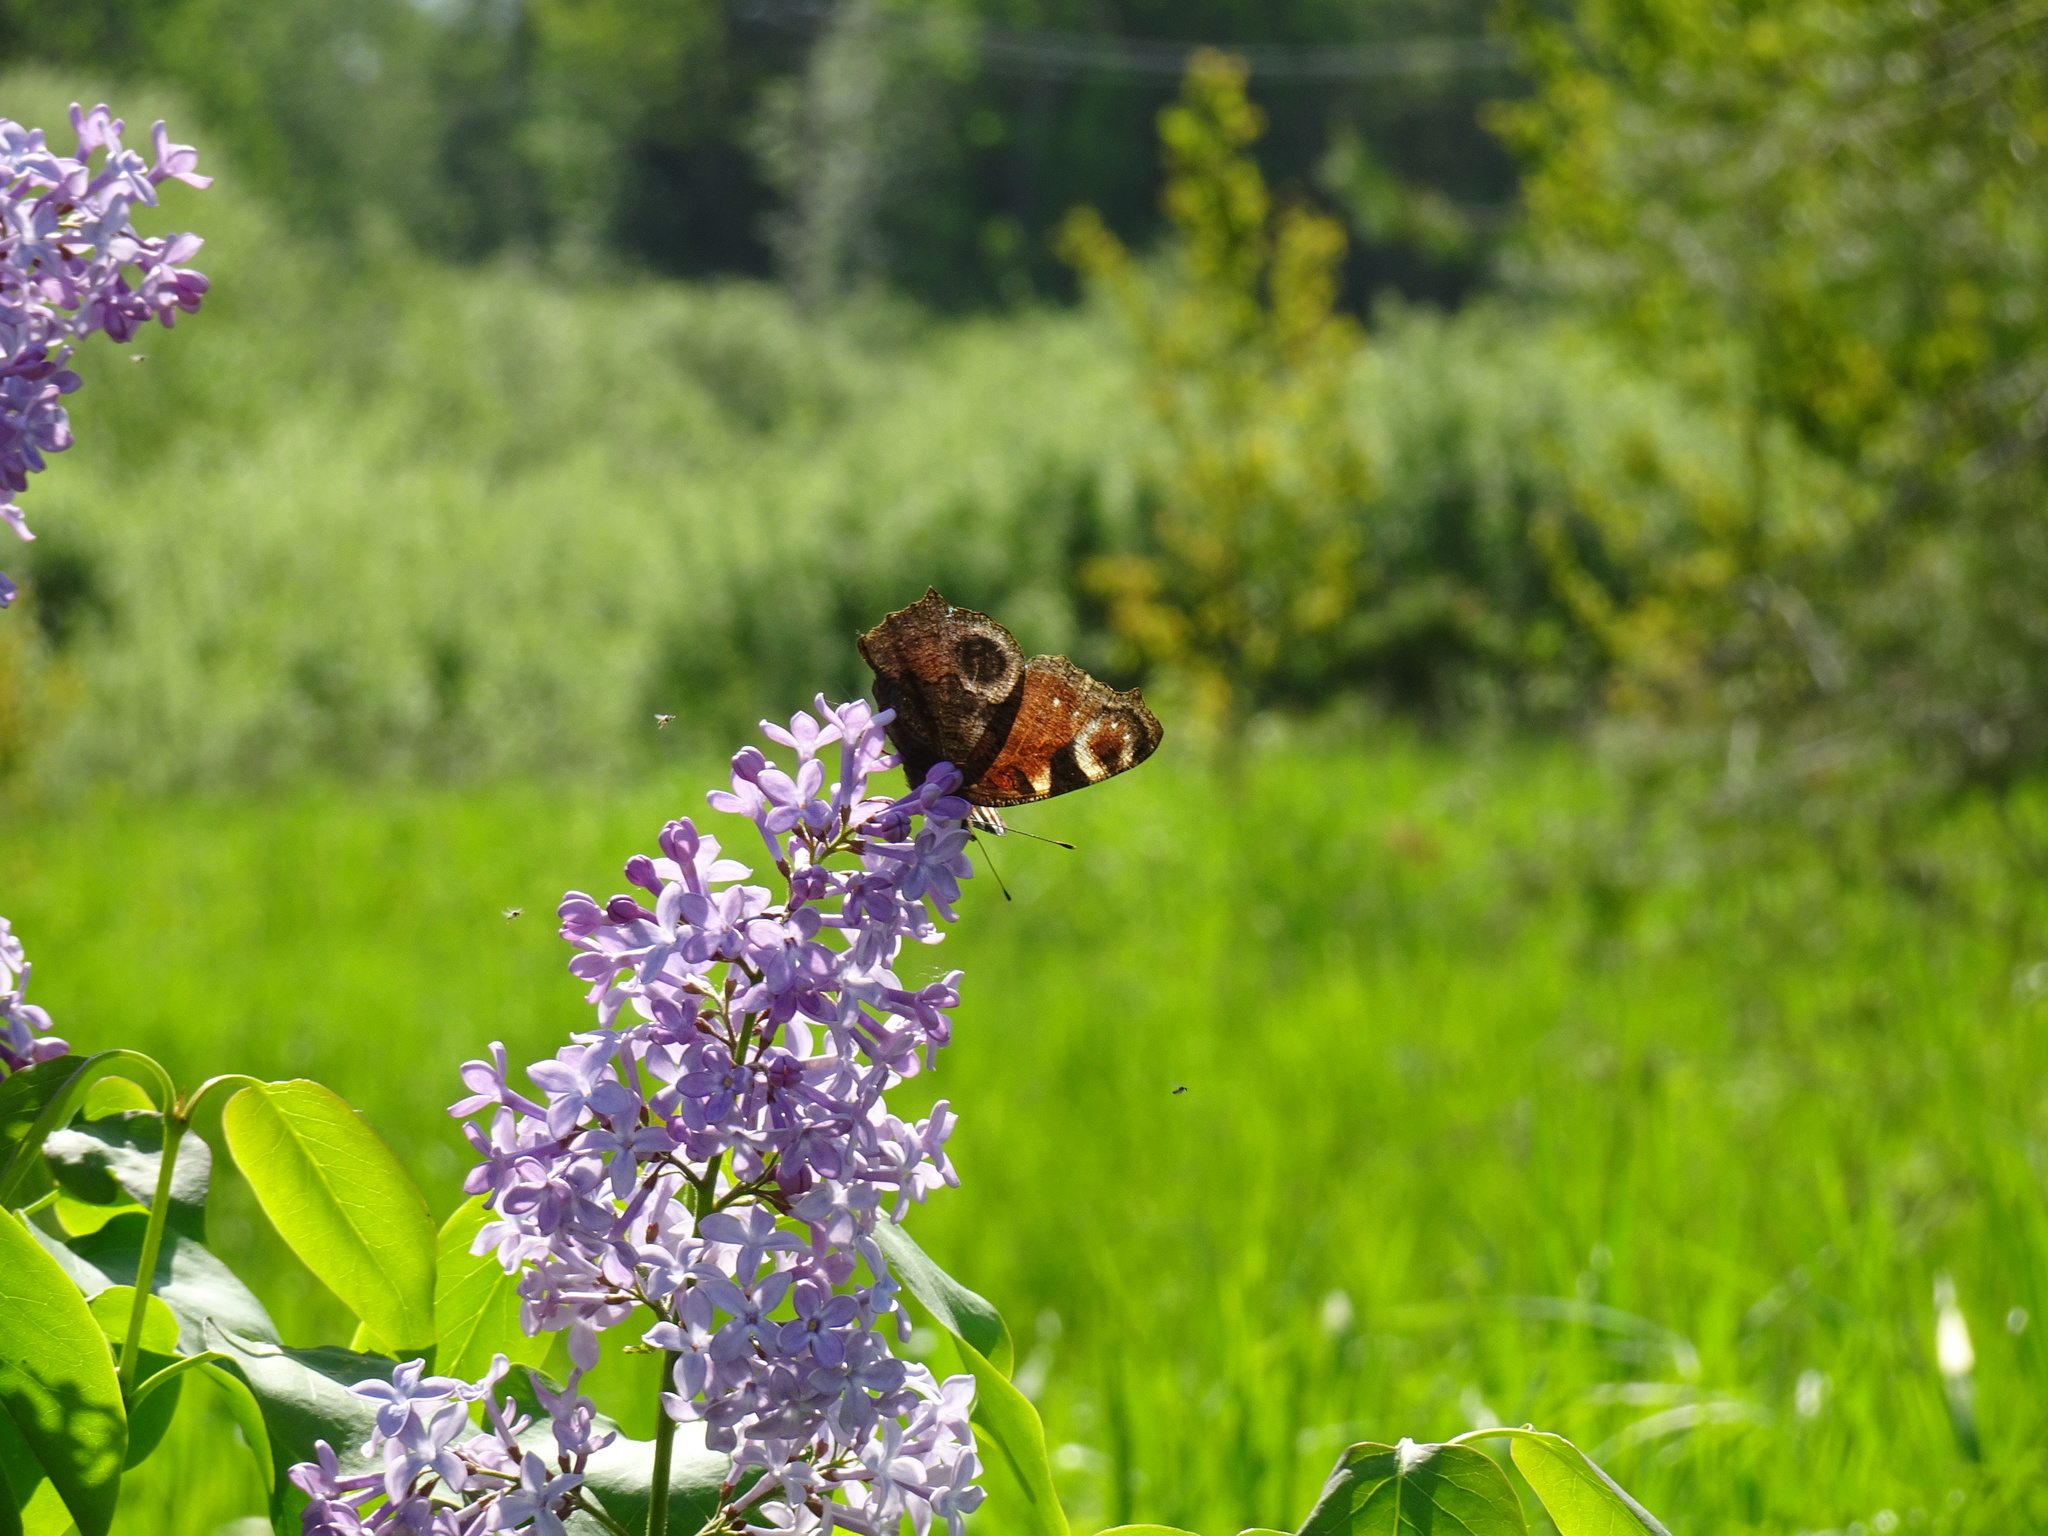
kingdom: Animalia
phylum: Arthropoda
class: Insecta
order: Lepidoptera
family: Nymphalidae
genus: Aglais
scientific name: Aglais io
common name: Peacock
